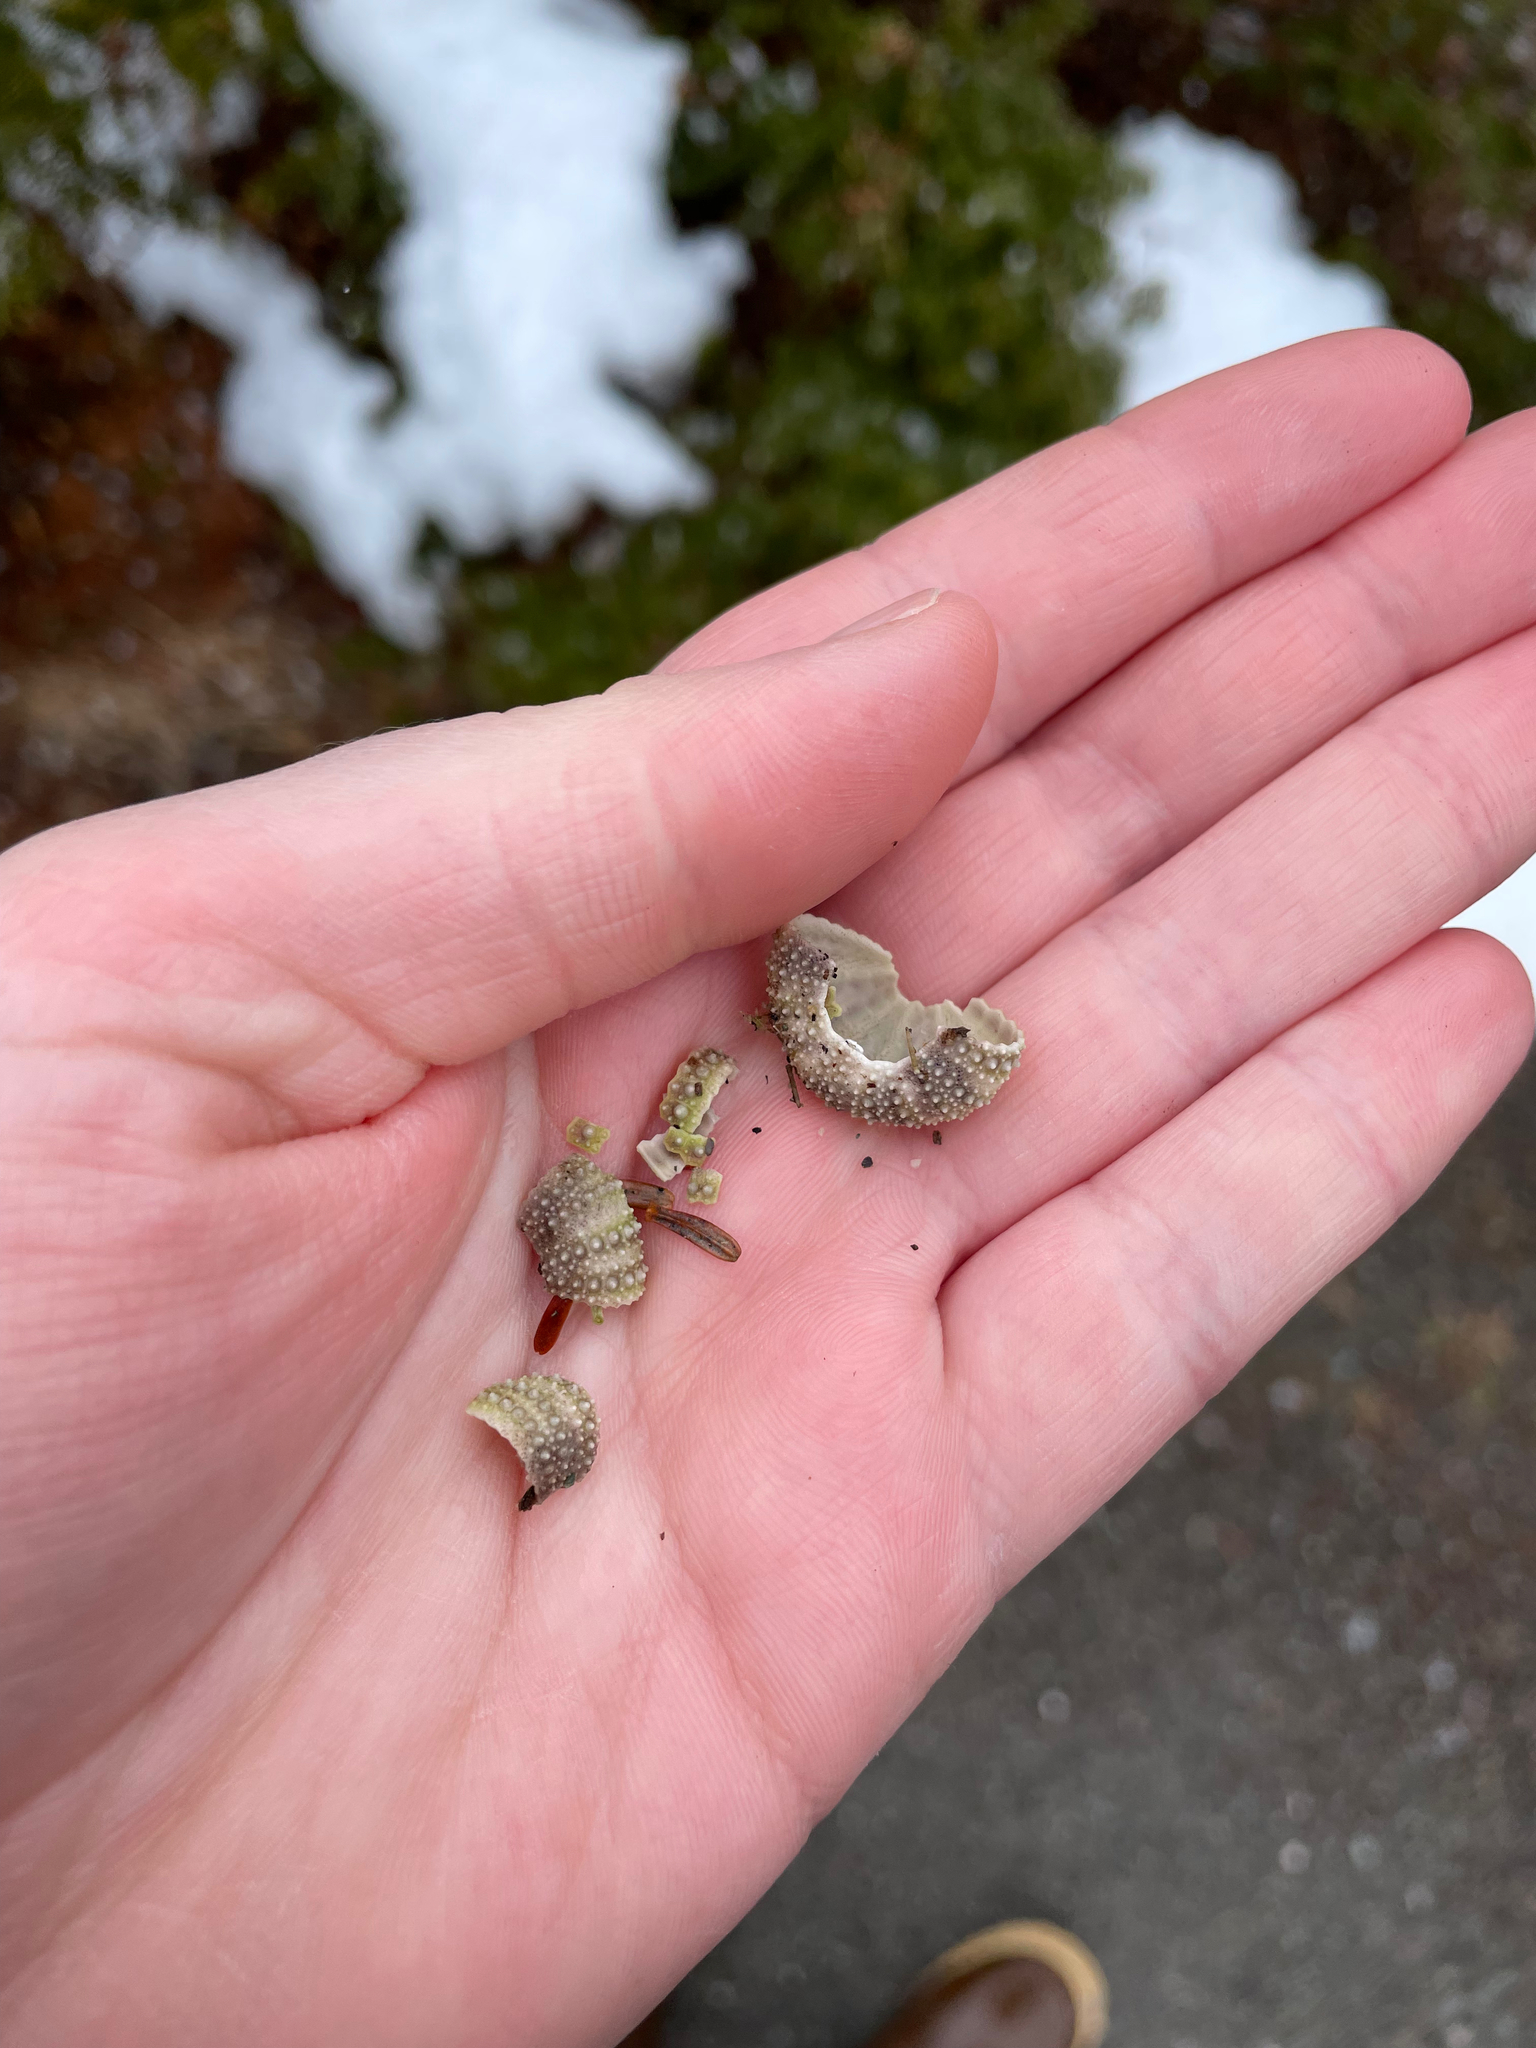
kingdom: Animalia
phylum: Echinodermata
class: Echinoidea
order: Camarodonta
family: Strongylocentrotidae
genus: Strongylocentrotus
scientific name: Strongylocentrotus droebachiensis
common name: Northern sea urchin
